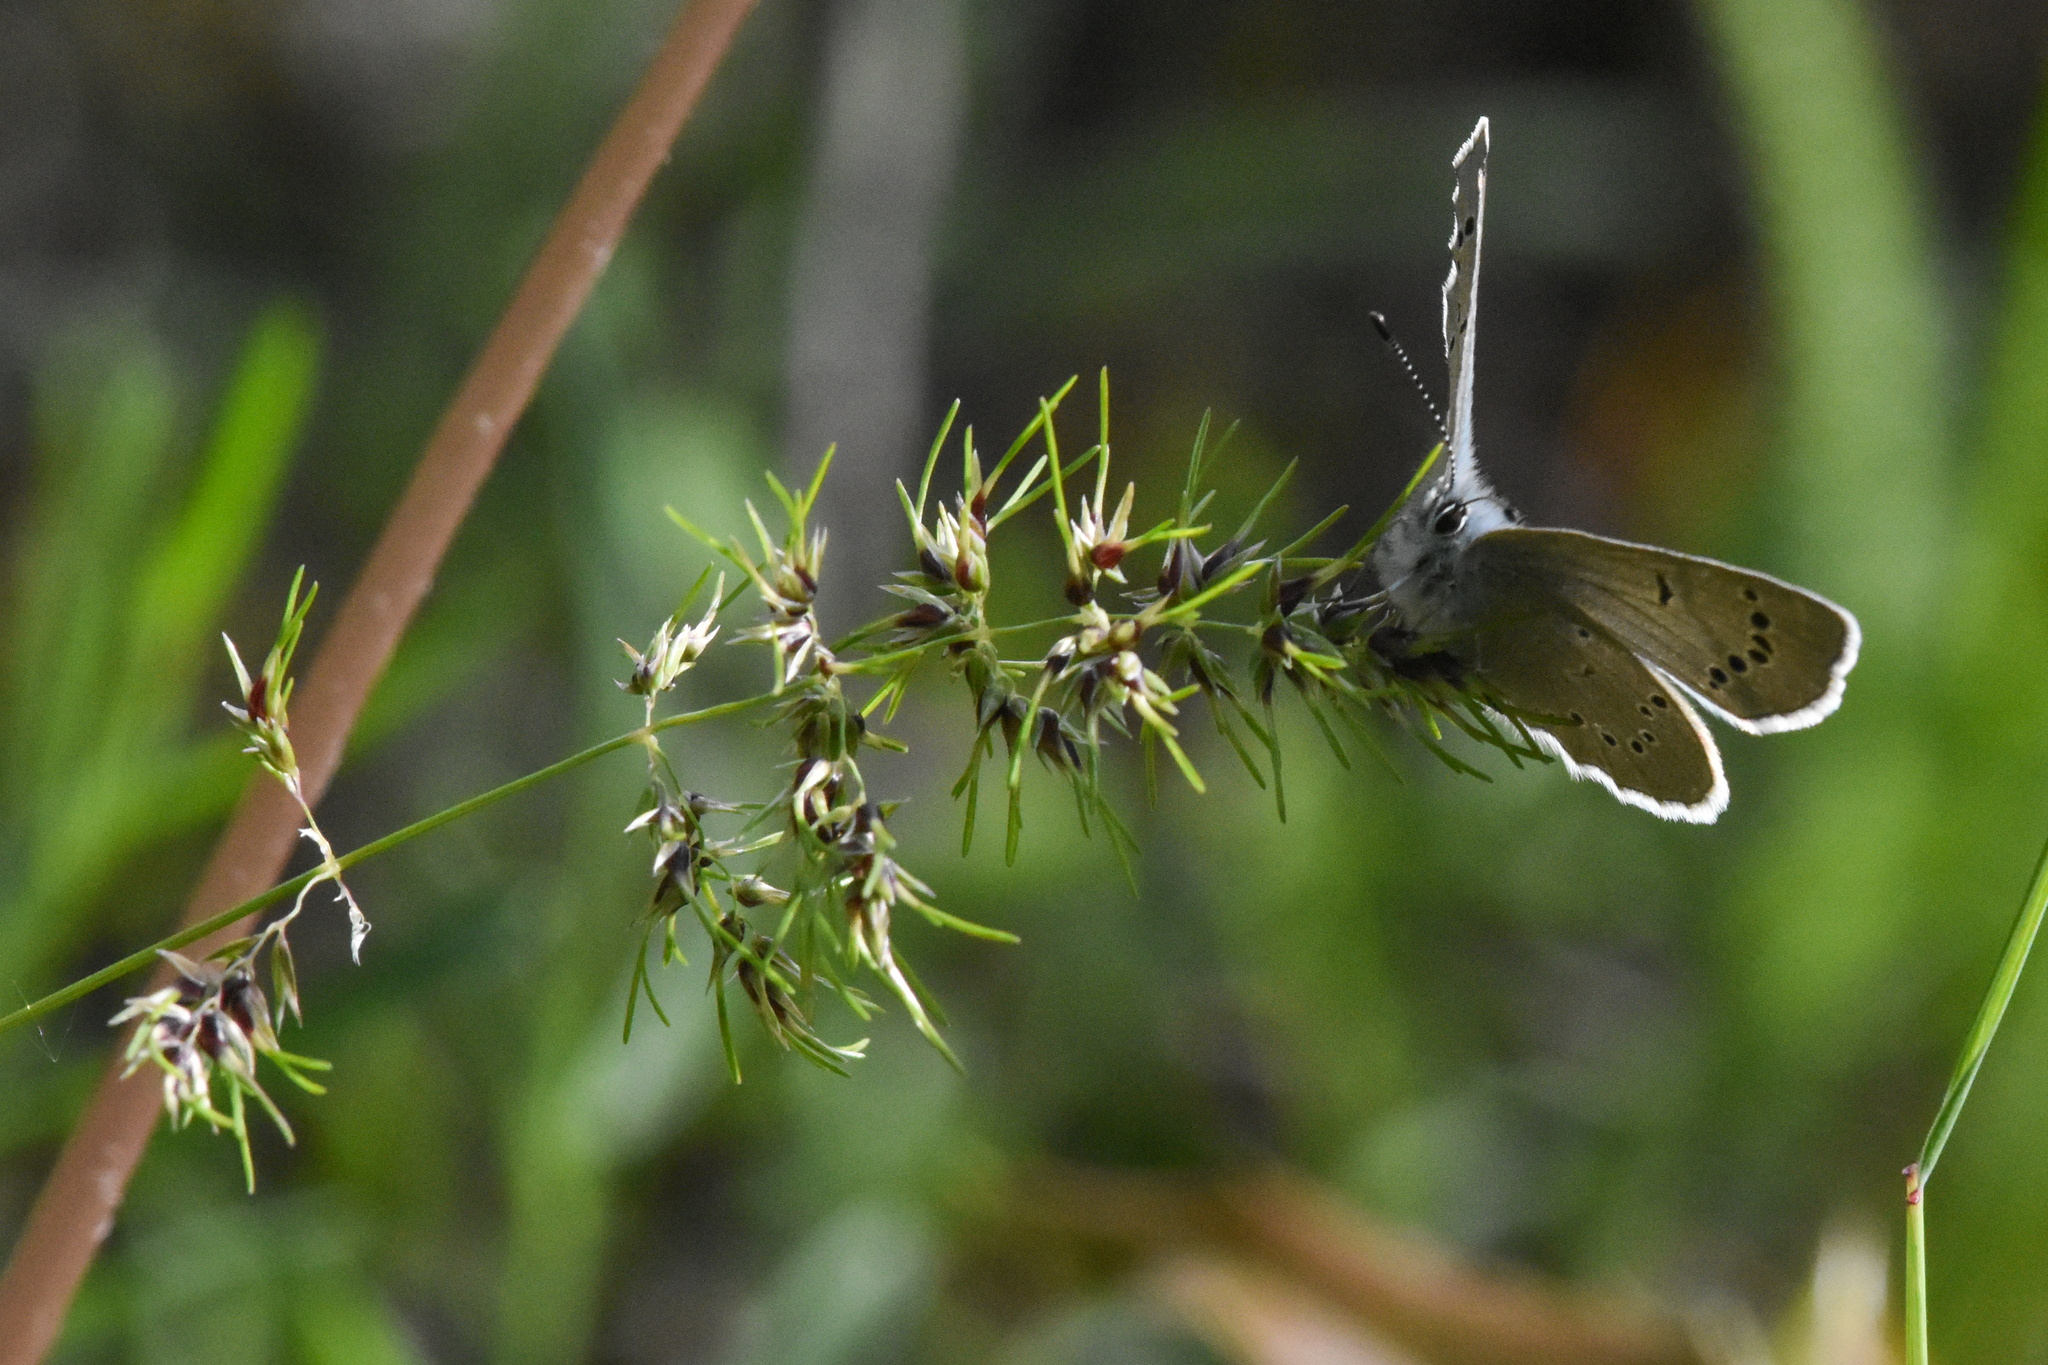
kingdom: Animalia
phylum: Arthropoda
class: Insecta
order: Lepidoptera
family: Lycaenidae
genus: Glaucopsyche
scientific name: Glaucopsyche lygdamus
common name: Silvery blue
